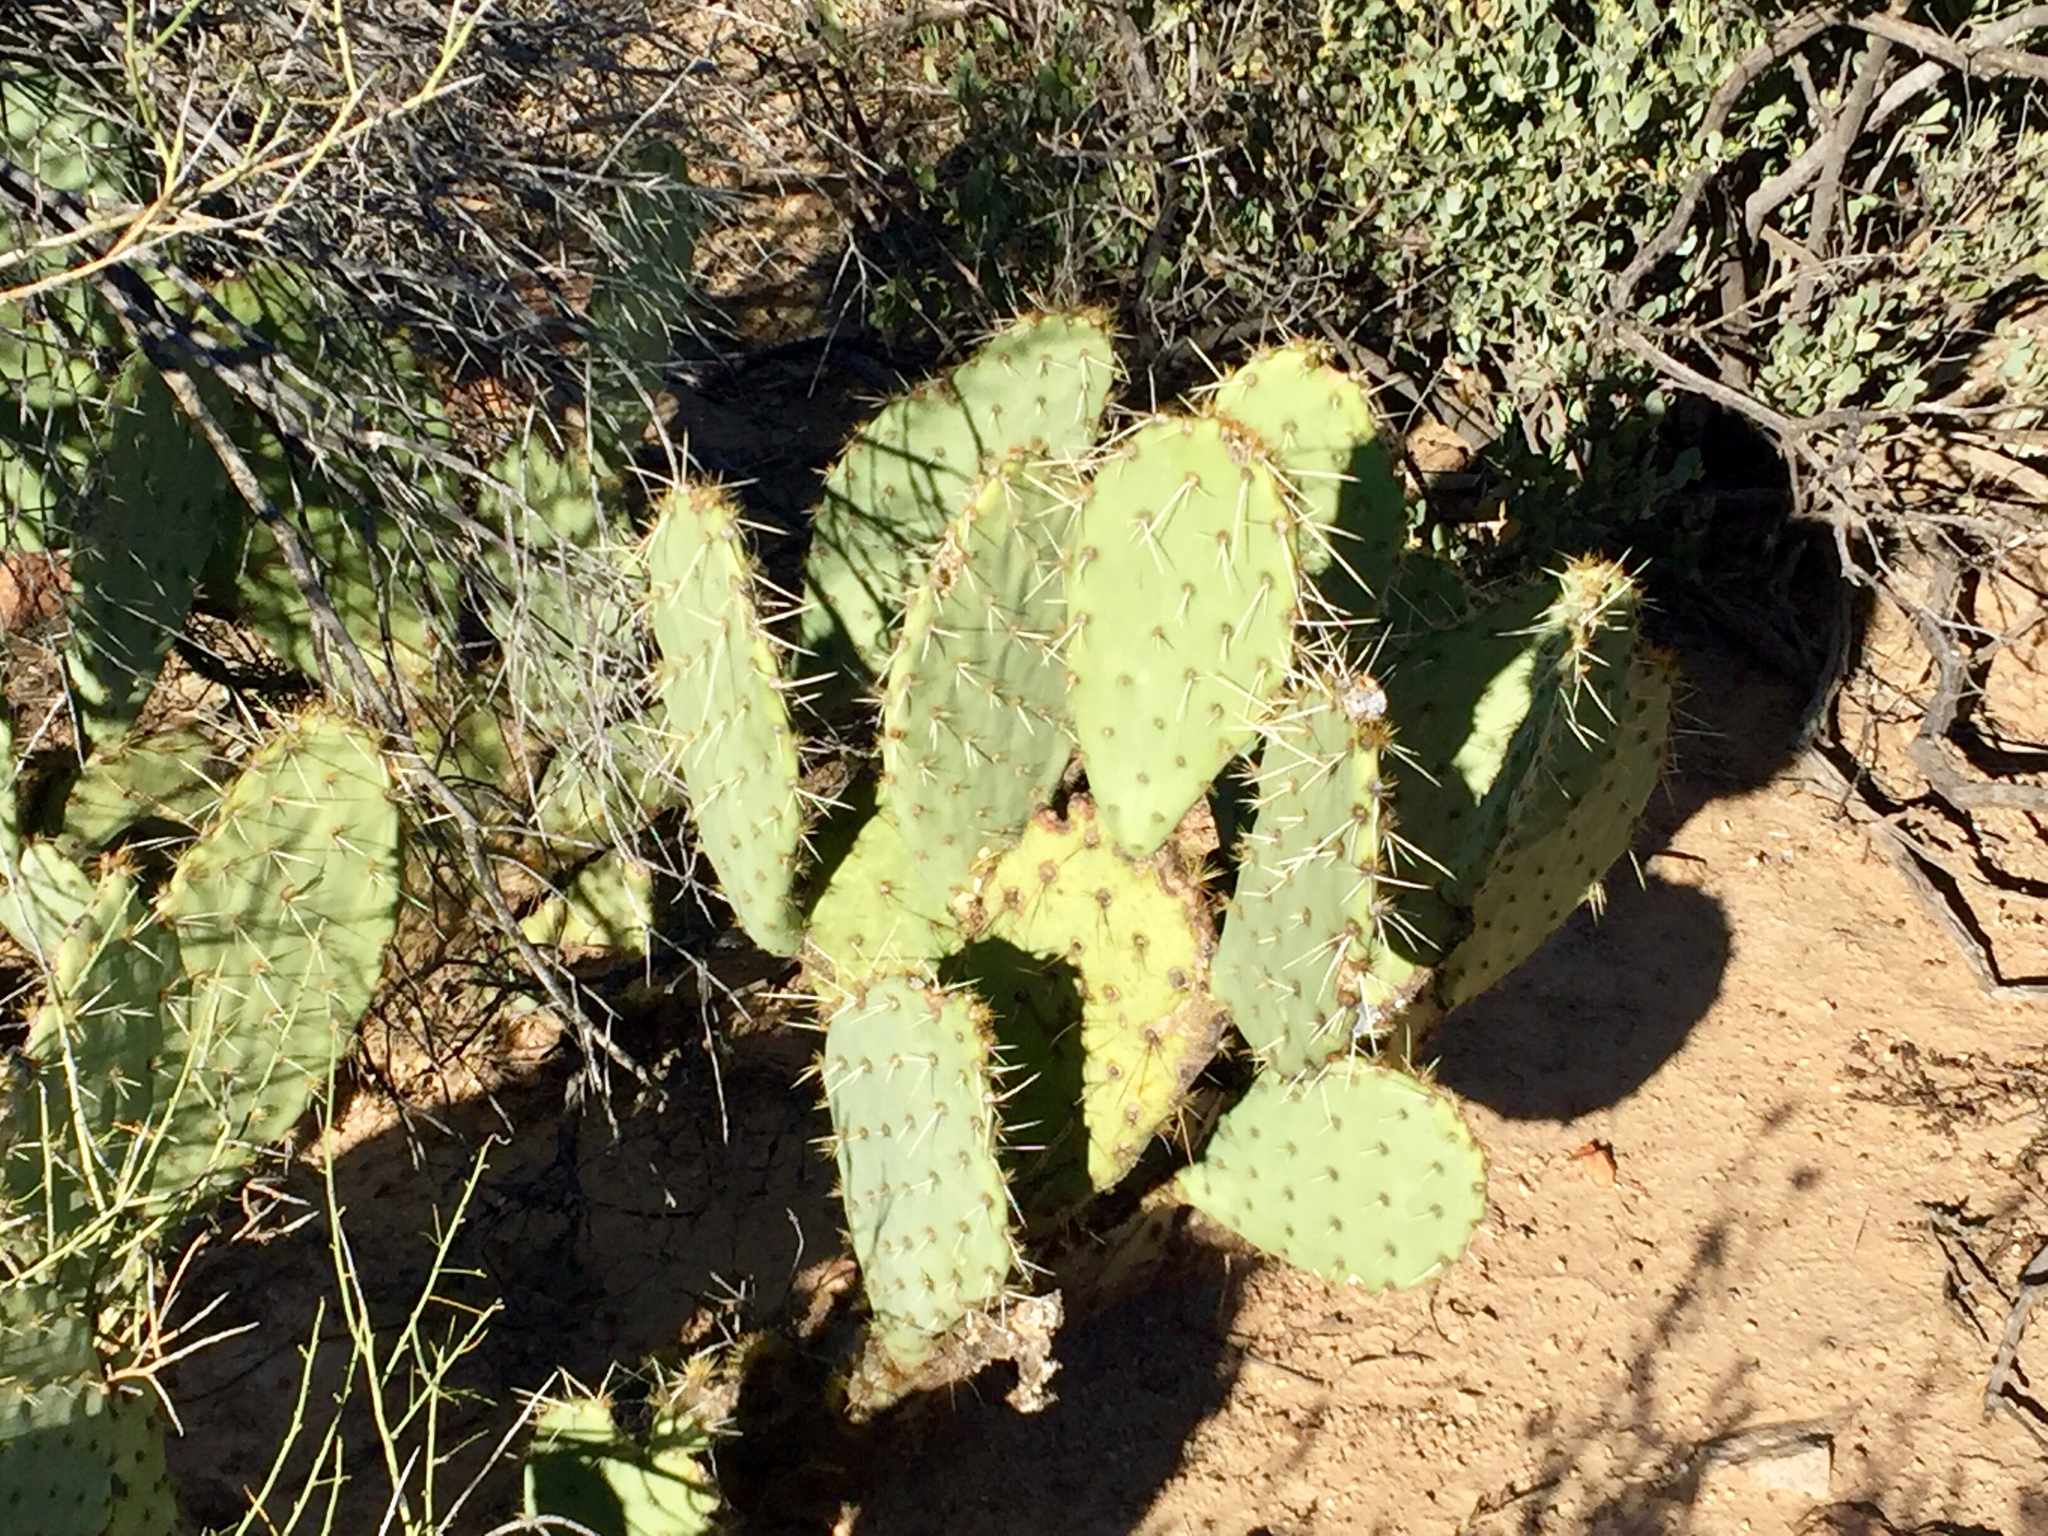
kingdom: Plantae
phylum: Tracheophyta
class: Magnoliopsida
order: Caryophyllales
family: Cactaceae
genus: Opuntia
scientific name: Opuntia engelmannii
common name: Cactus-apple
